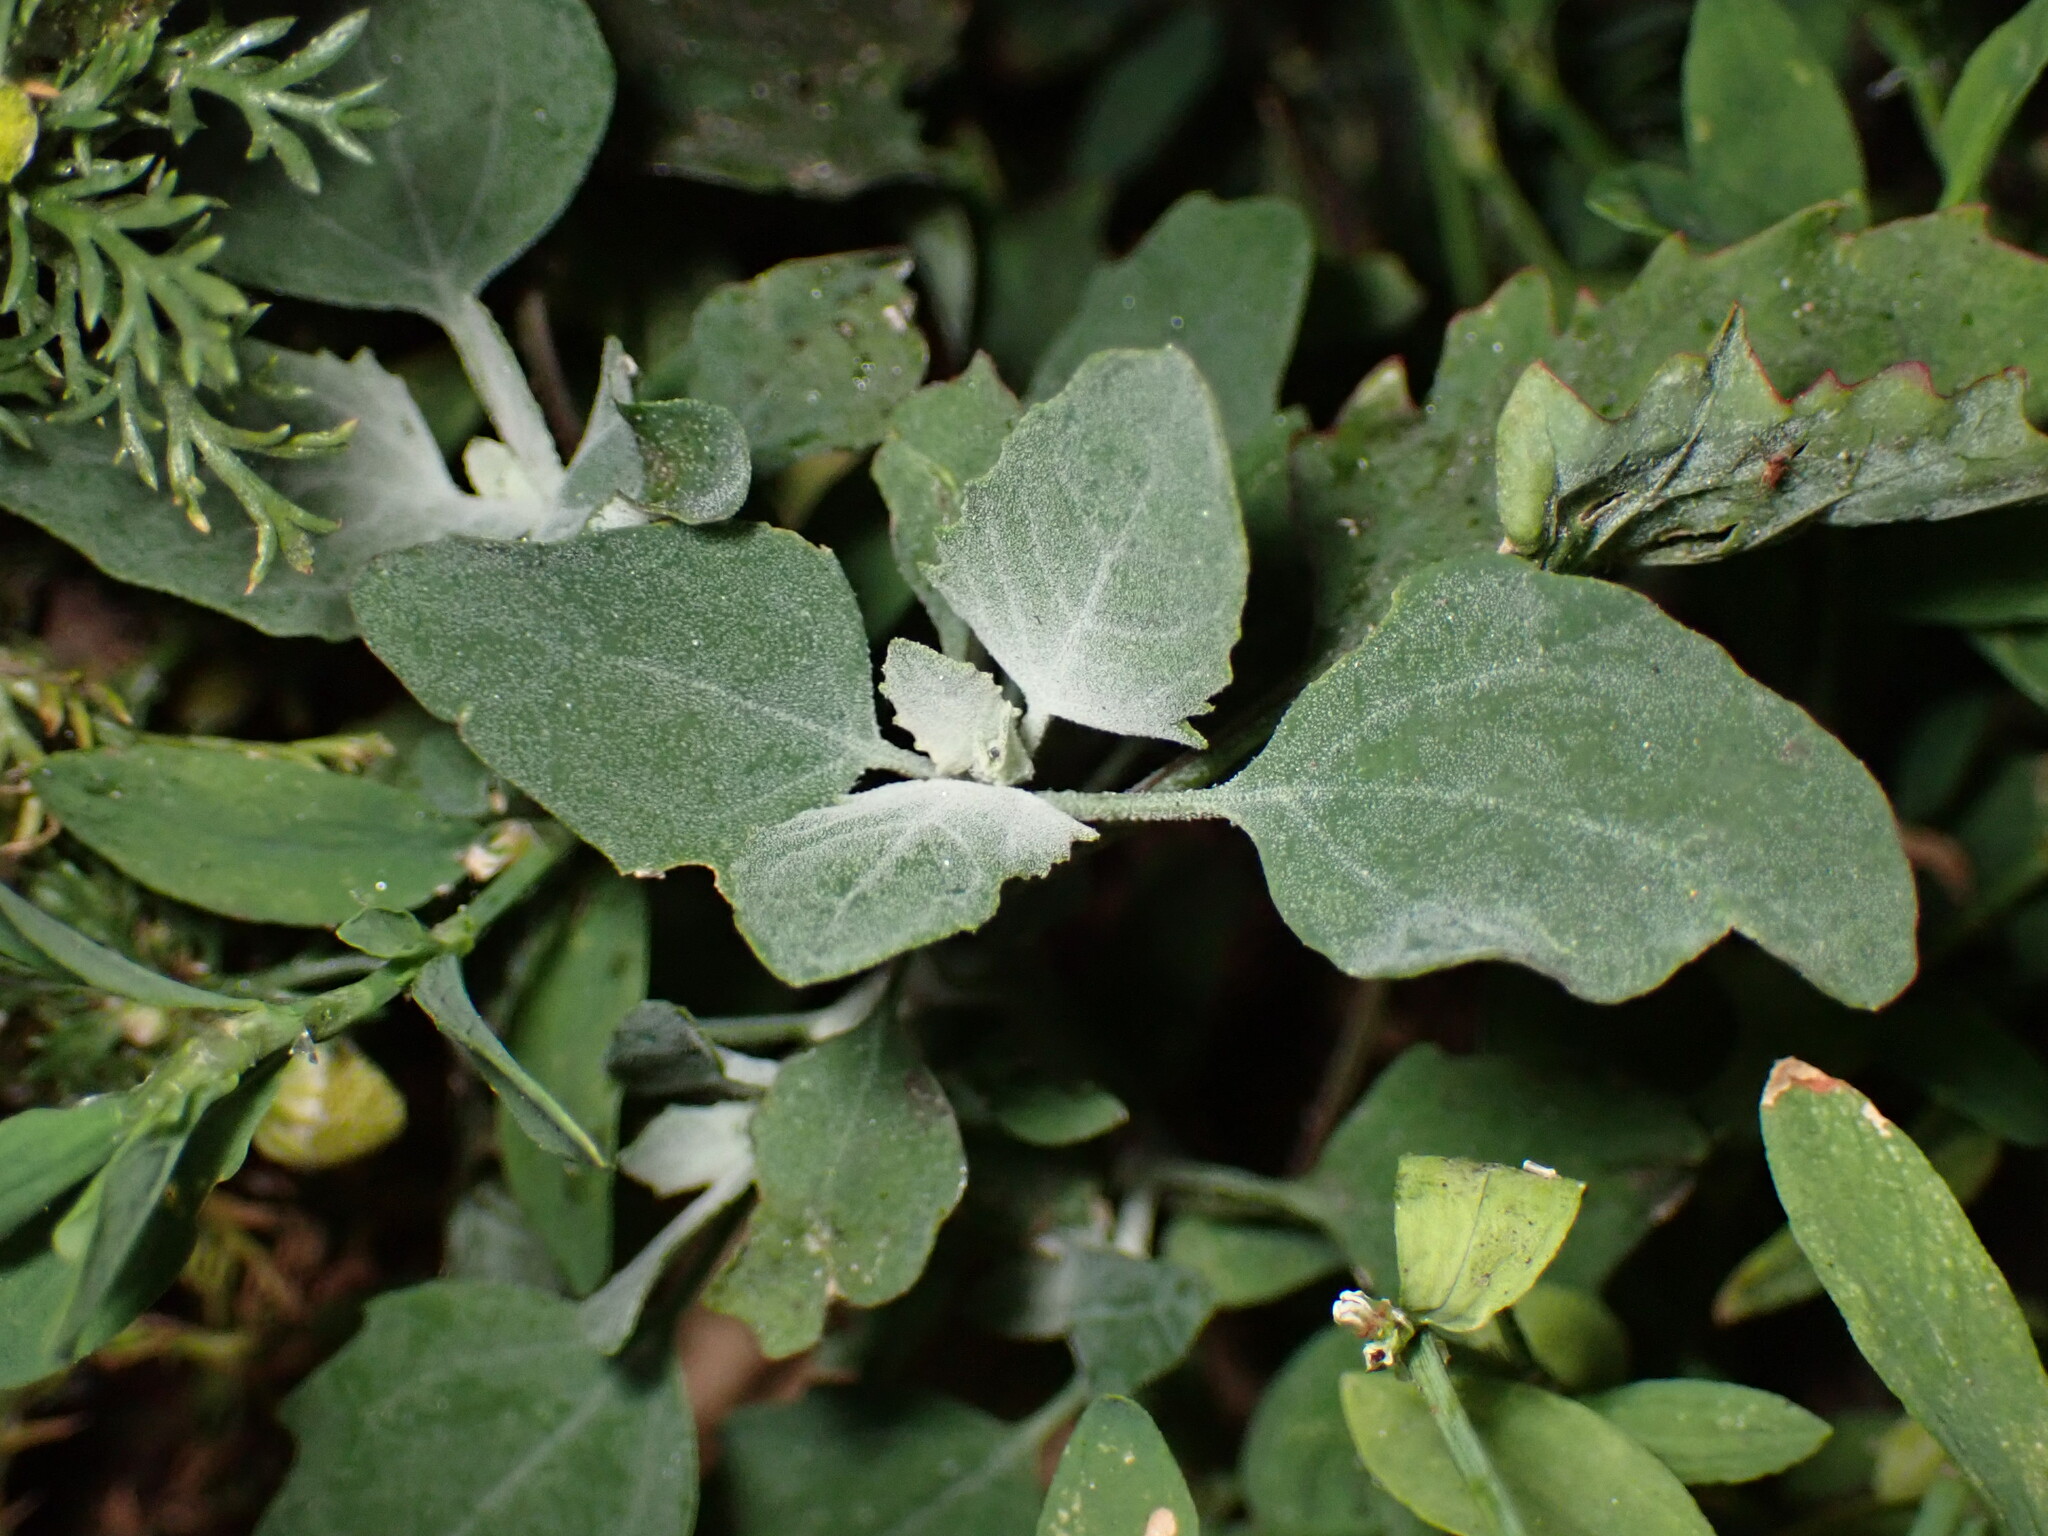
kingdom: Plantae
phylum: Tracheophyta
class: Magnoliopsida
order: Caryophyllales
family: Amaranthaceae
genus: Chenopodium
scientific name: Chenopodium album
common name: Fat-hen
